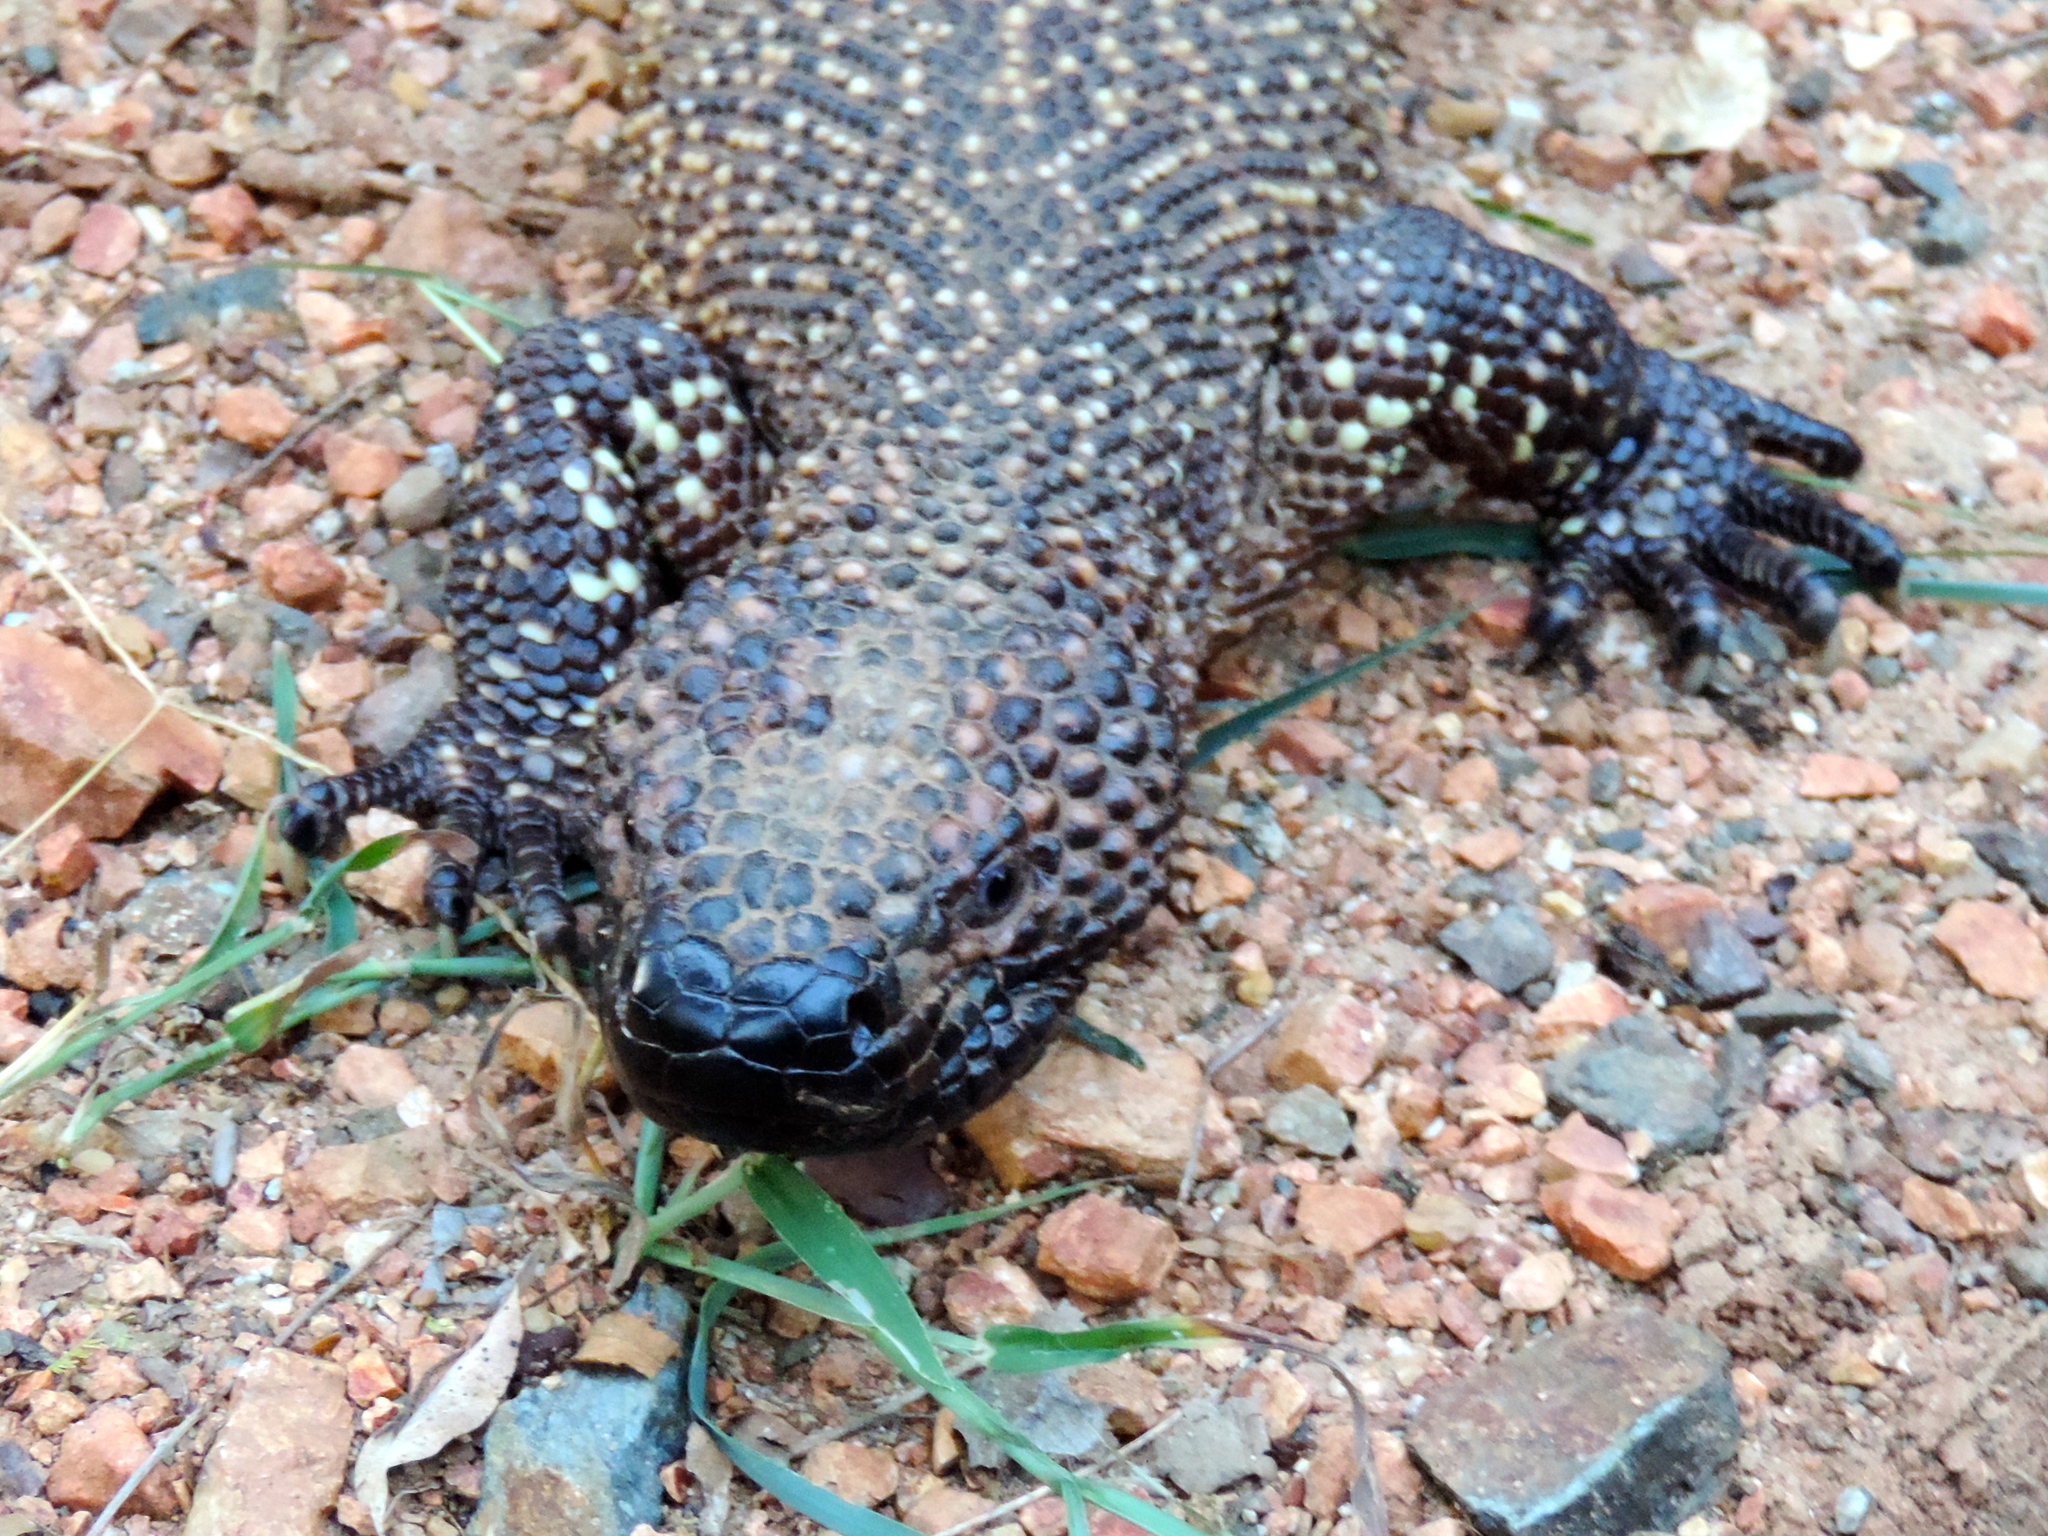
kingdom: Animalia
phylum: Chordata
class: Squamata
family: Helodermatidae
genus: Heloderma
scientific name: Heloderma horridum
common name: Mexican beaded lizard
